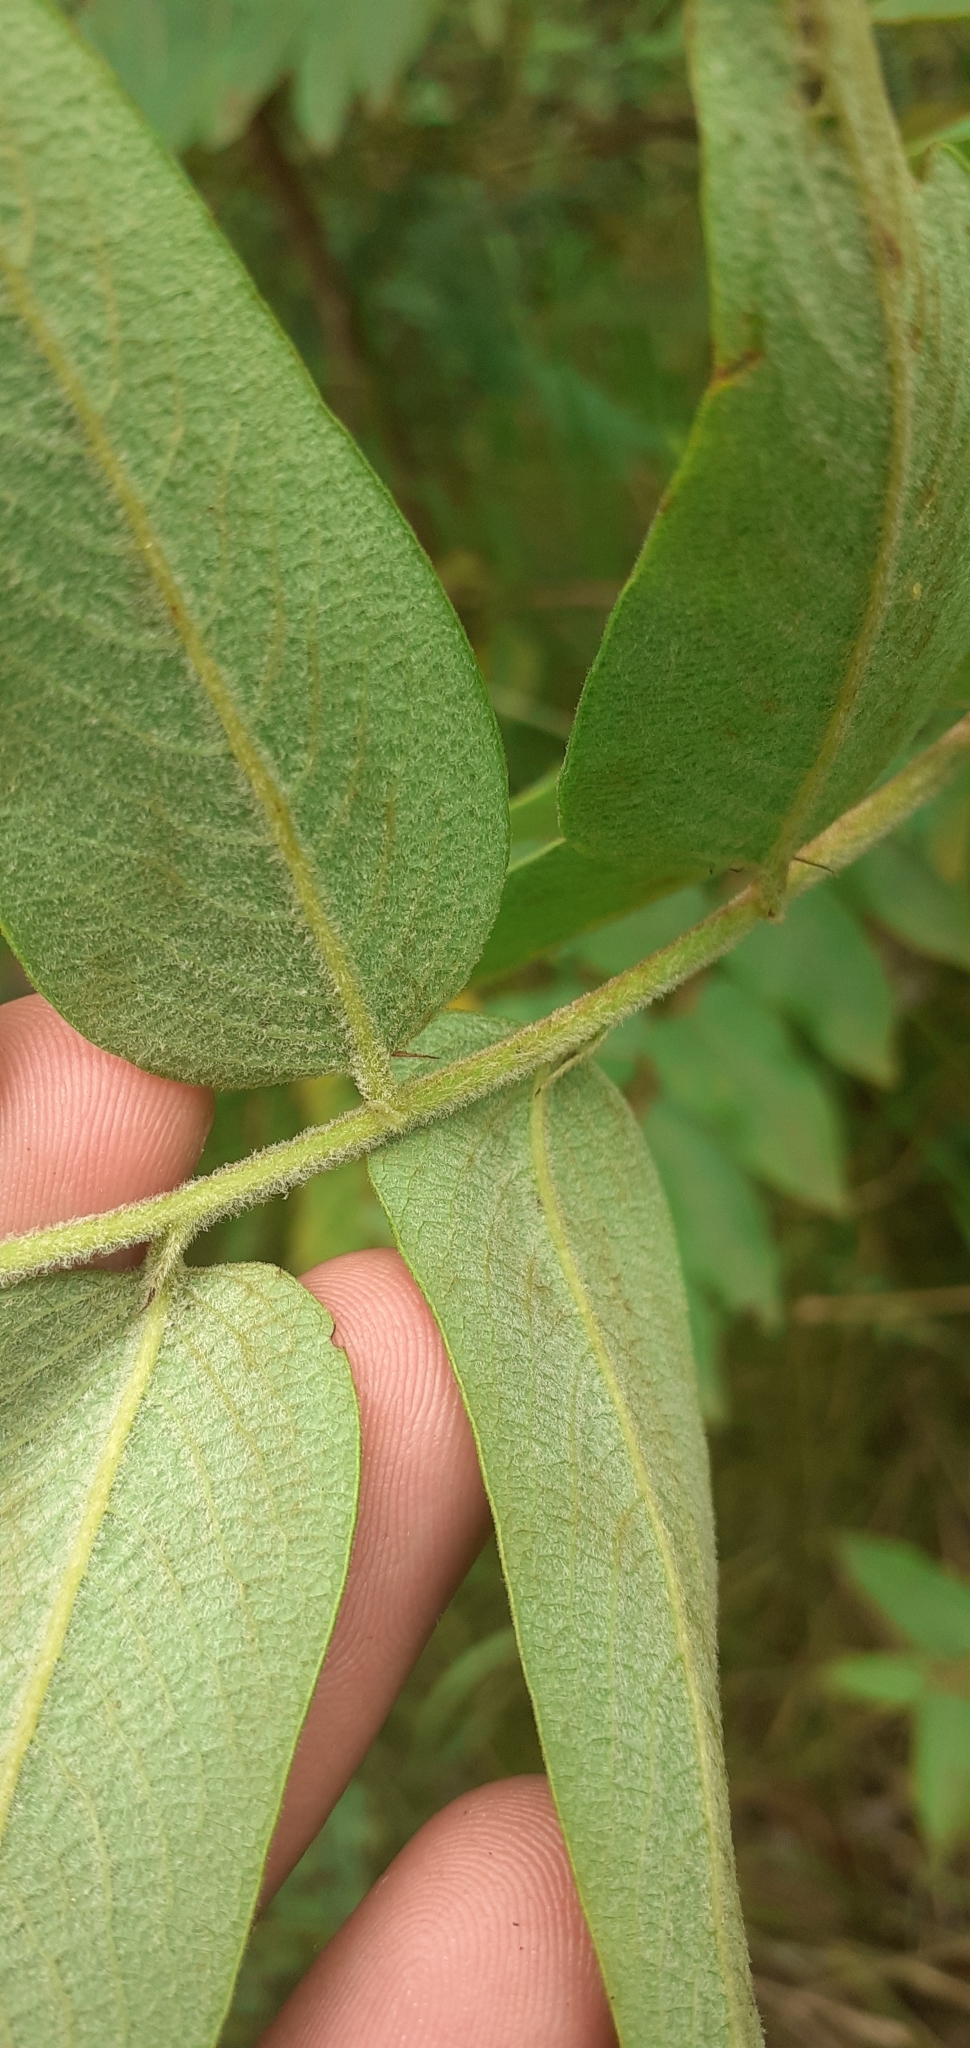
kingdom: Plantae
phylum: Tracheophyta
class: Magnoliopsida
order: Malpighiales
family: Phyllanthaceae
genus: Phyllanthus
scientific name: Phyllanthus salviifolius
